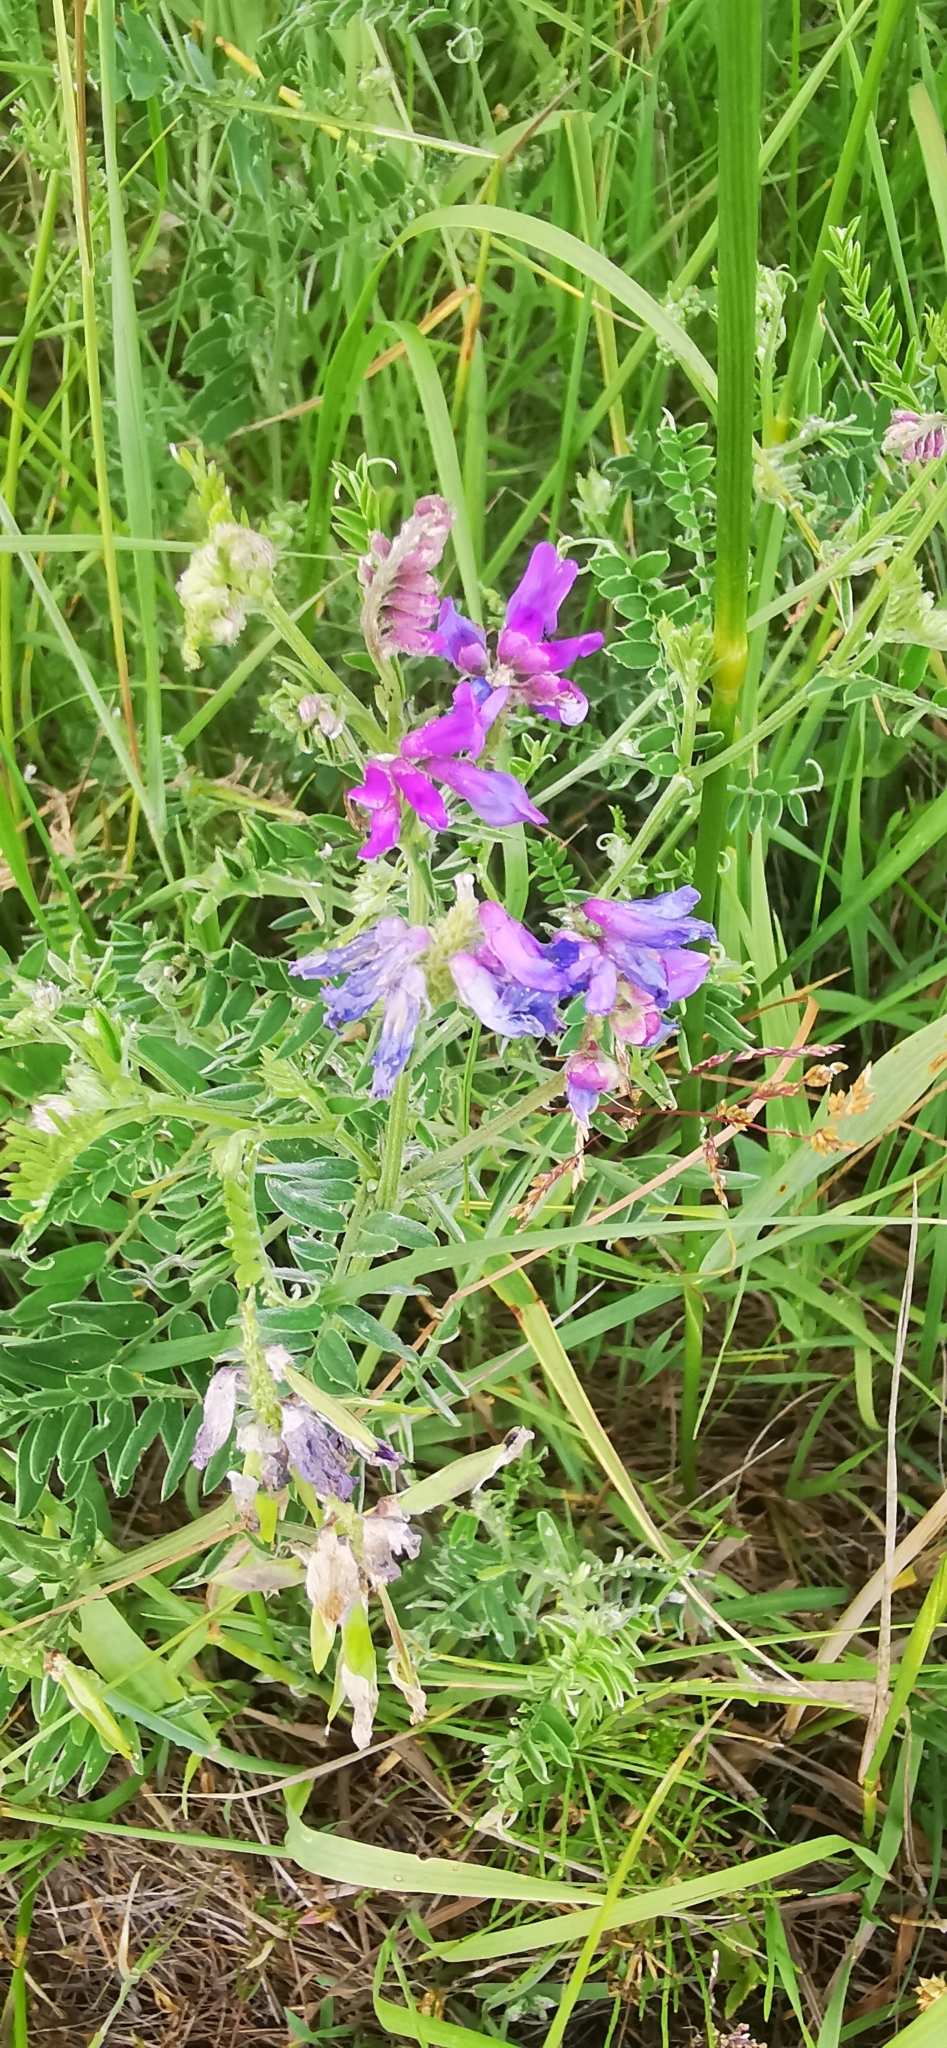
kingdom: Plantae
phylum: Tracheophyta
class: Magnoliopsida
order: Fabales
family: Fabaceae
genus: Vicia
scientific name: Vicia cracca
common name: Bird vetch
